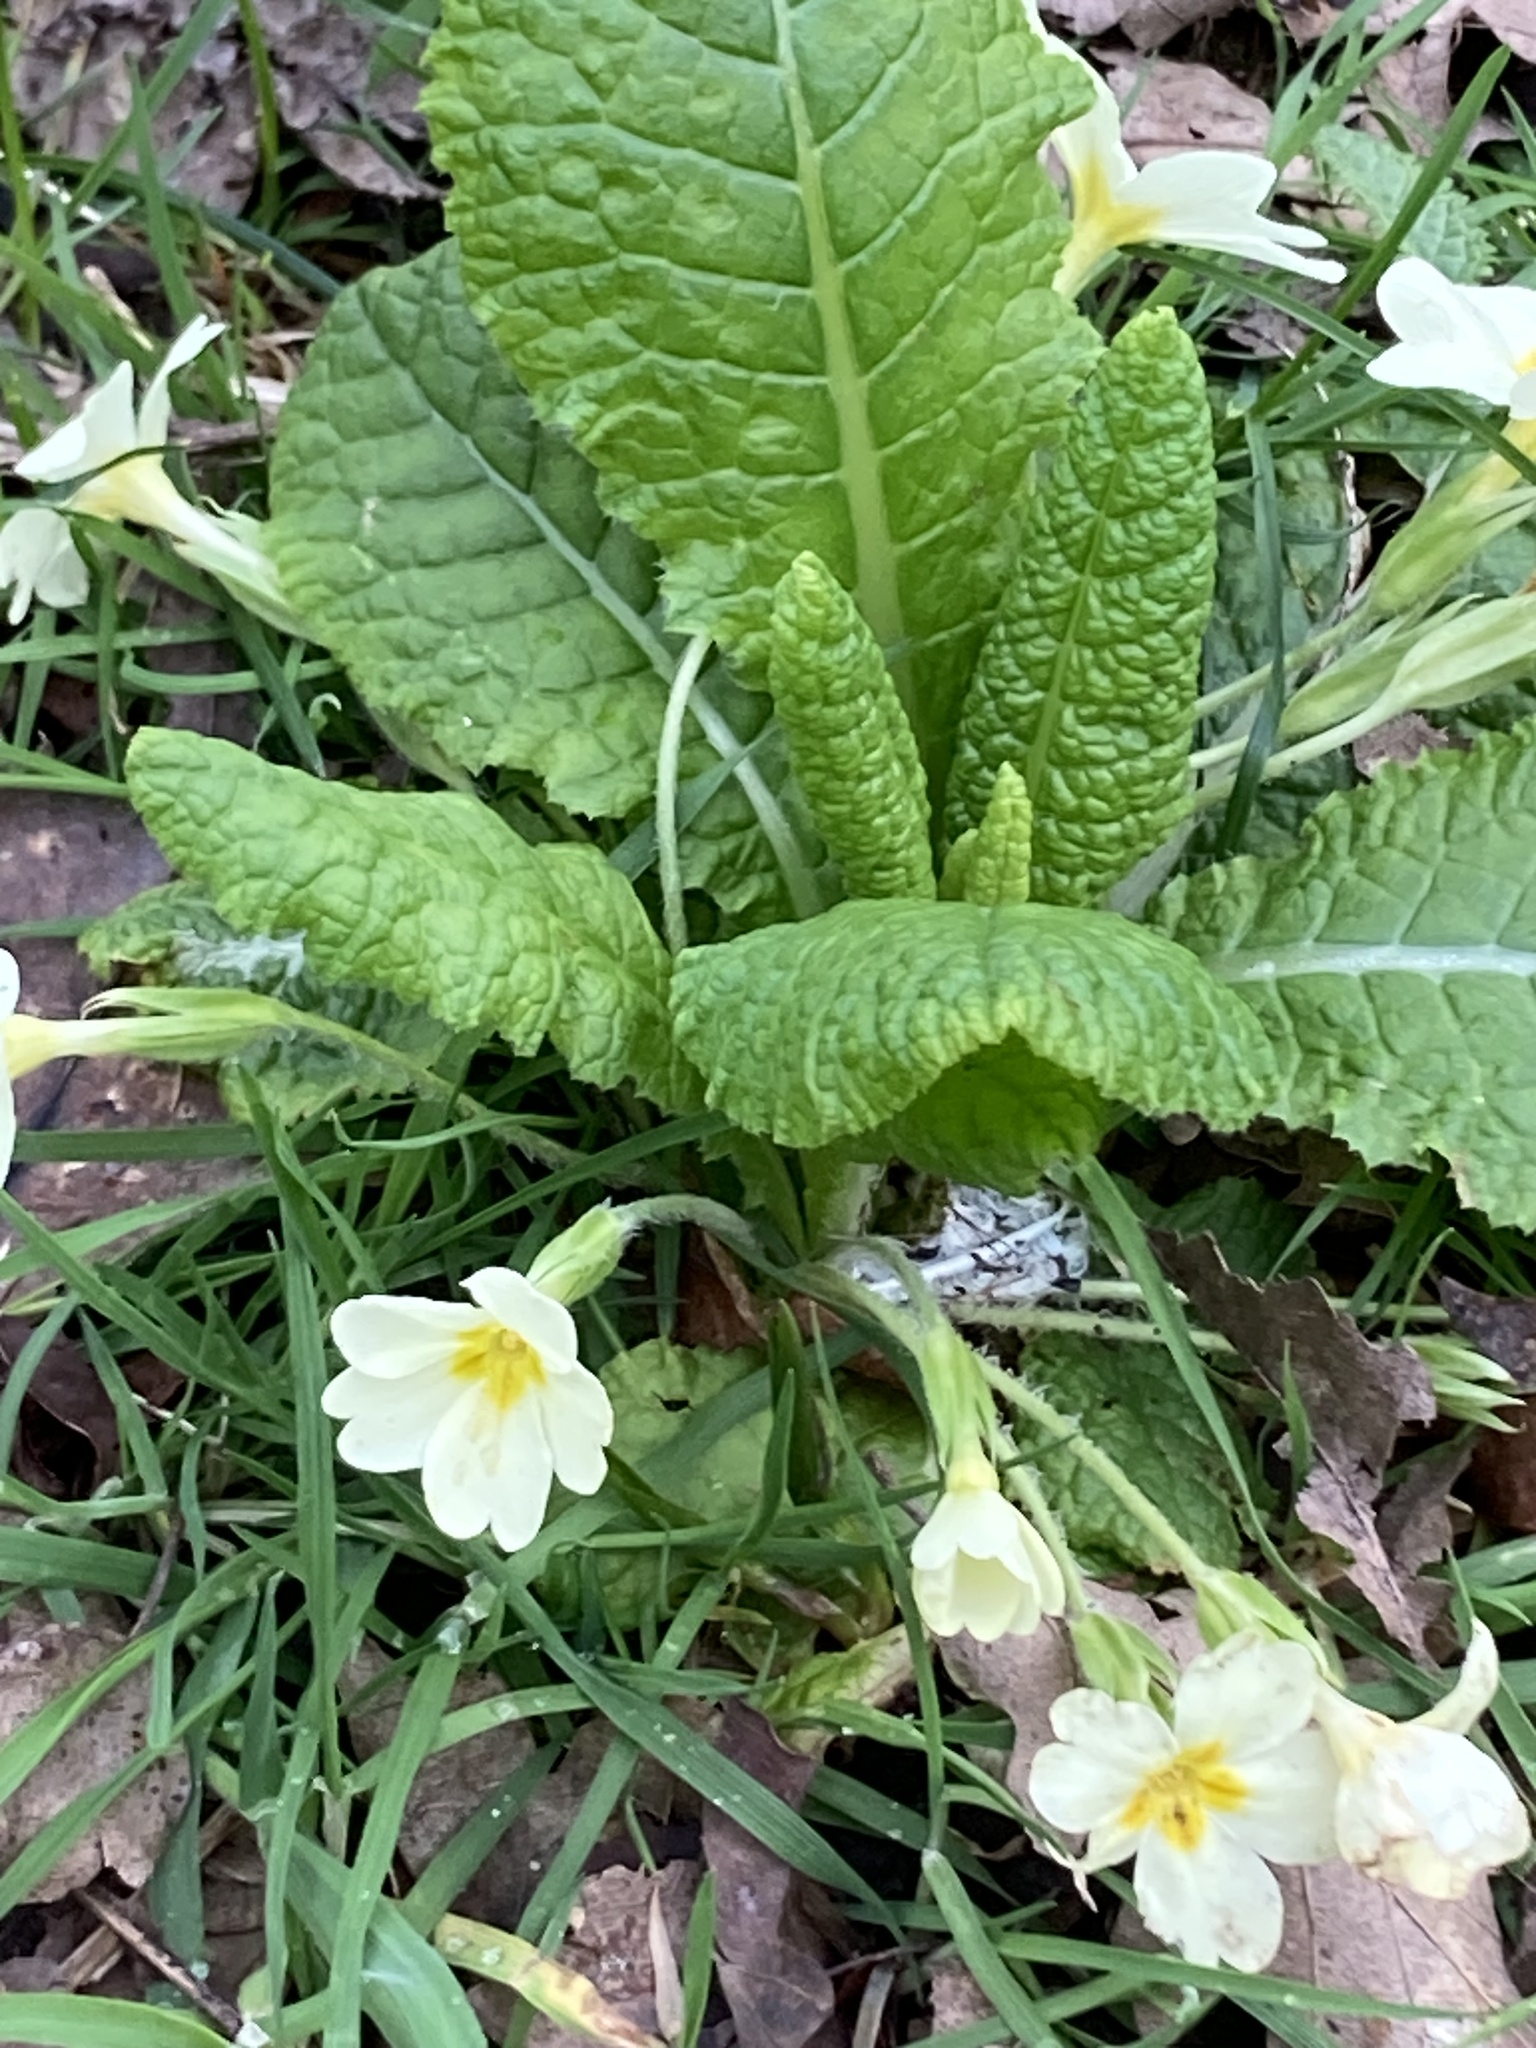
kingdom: Plantae
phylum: Tracheophyta
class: Magnoliopsida
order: Ericales
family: Primulaceae
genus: Primula
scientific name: Primula vulgaris
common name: Primrose
